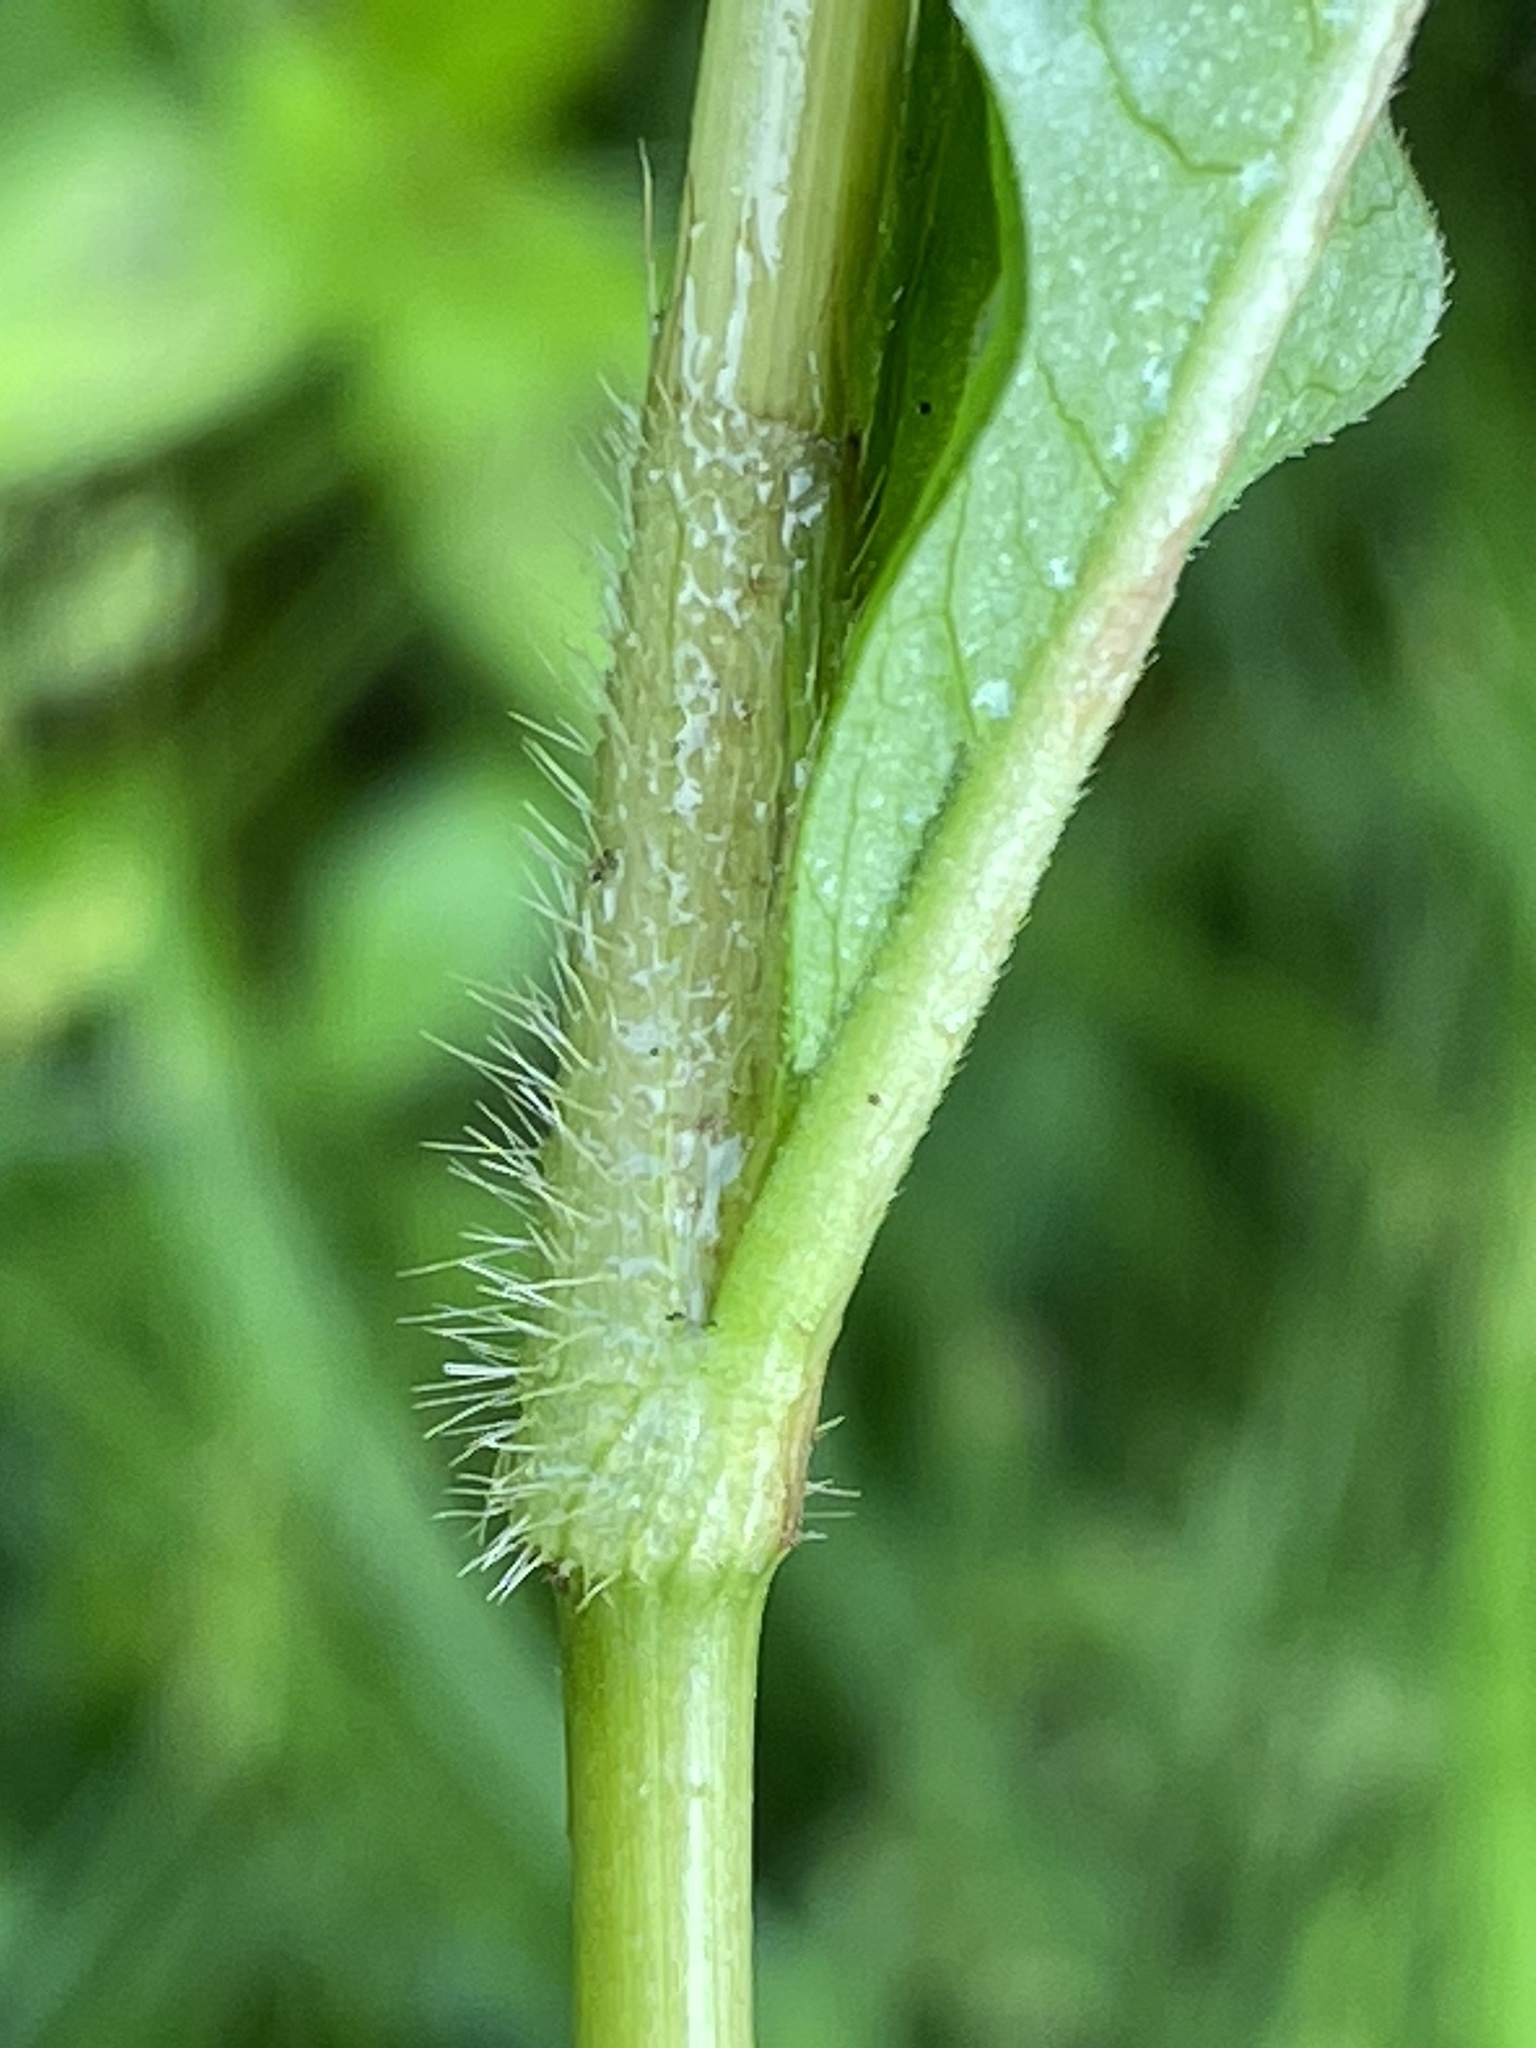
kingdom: Plantae
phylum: Tracheophyta
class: Magnoliopsida
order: Caryophyllales
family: Polygonaceae
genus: Persicaria
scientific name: Persicaria virginiana
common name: Jumpseed
